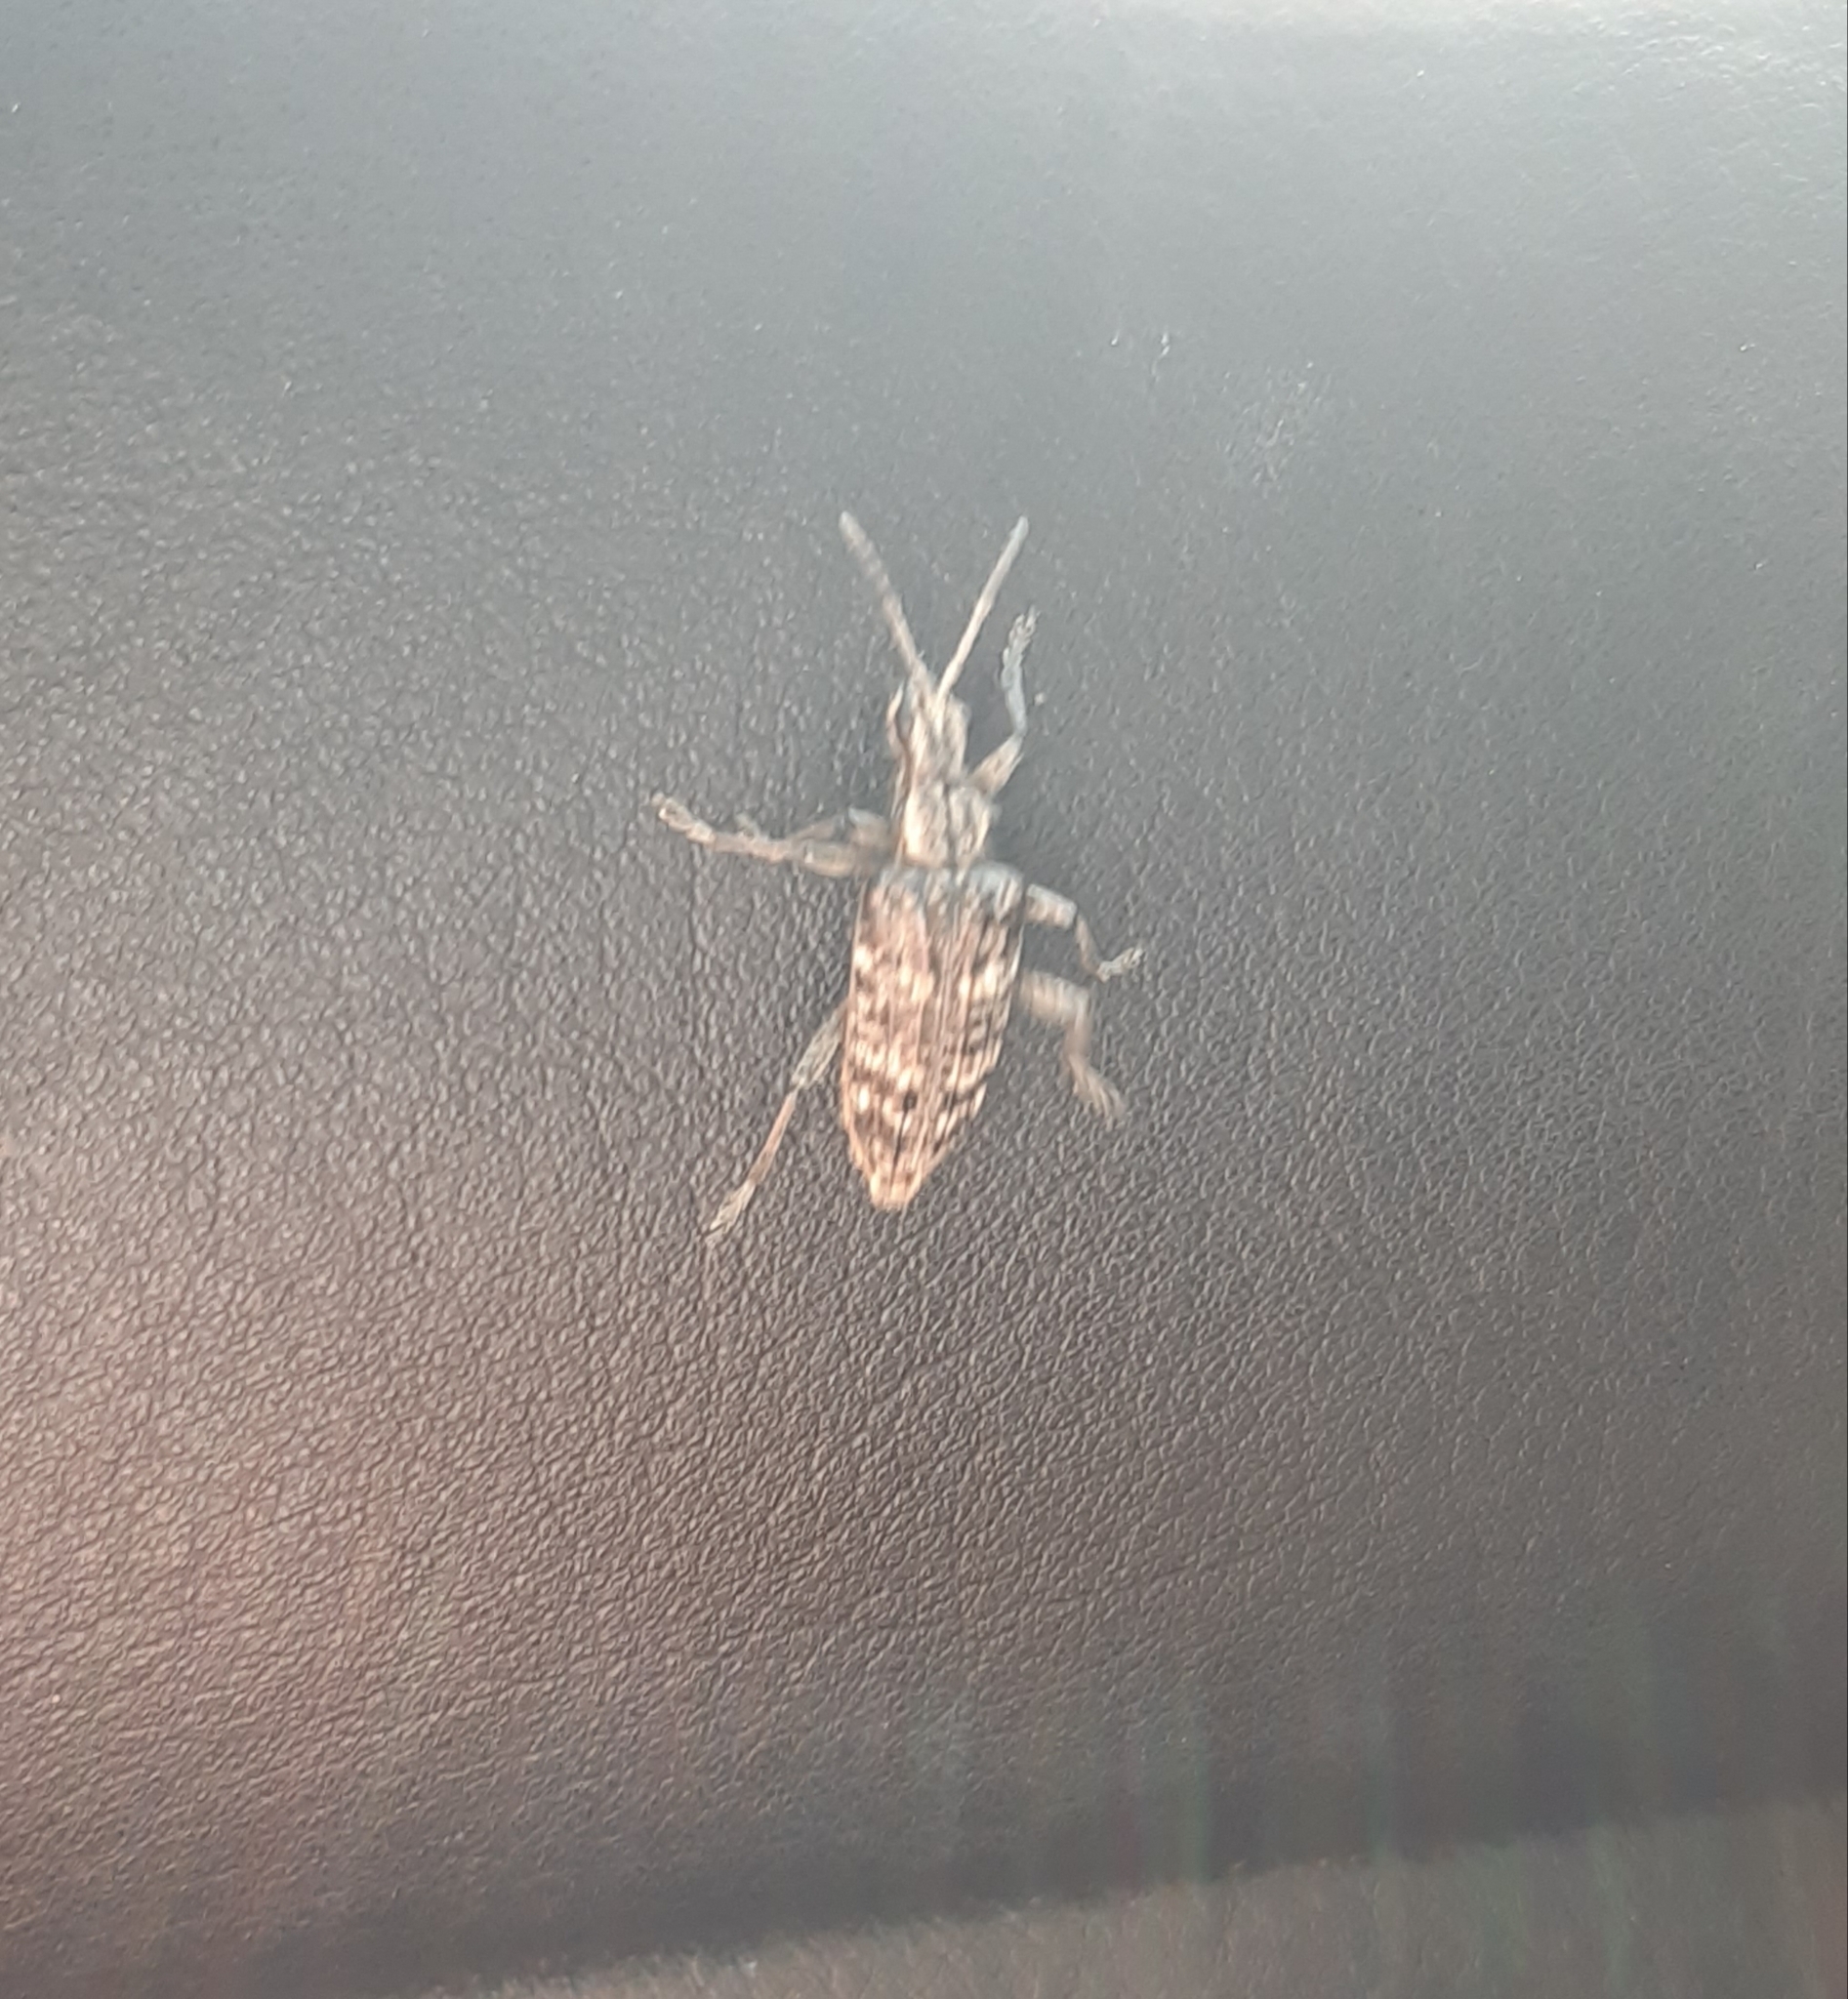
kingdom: Animalia
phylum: Arthropoda
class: Insecta
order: Coleoptera
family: Cerambycidae
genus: Rhagium
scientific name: Rhagium inquisitor
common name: Ribbed pine borer
